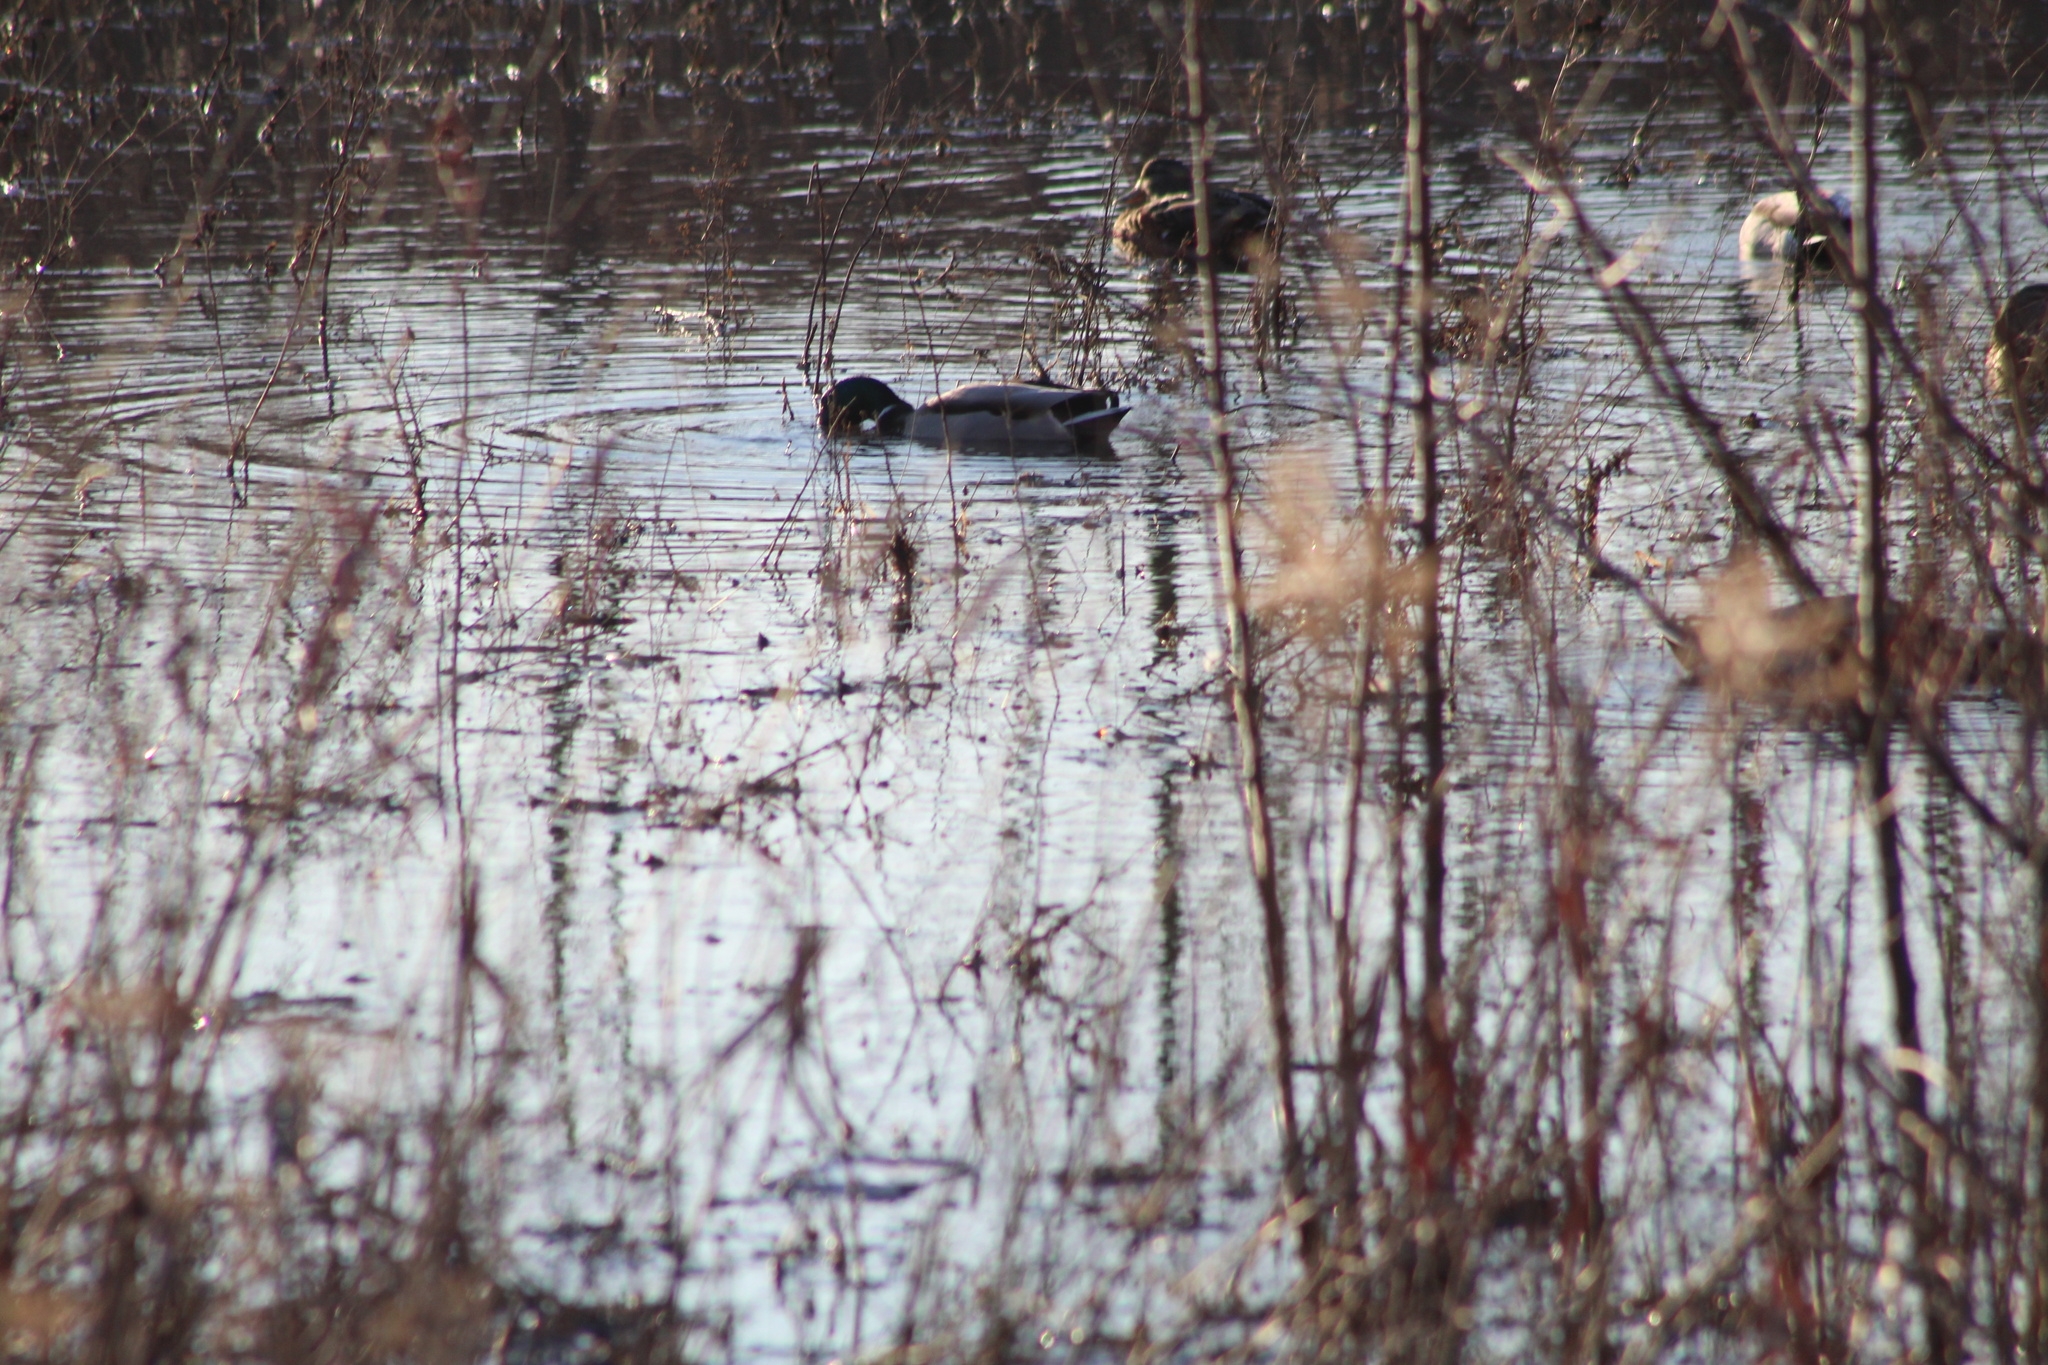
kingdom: Animalia
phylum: Chordata
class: Aves
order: Anseriformes
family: Anatidae
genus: Anas
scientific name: Anas platyrhynchos
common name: Mallard
